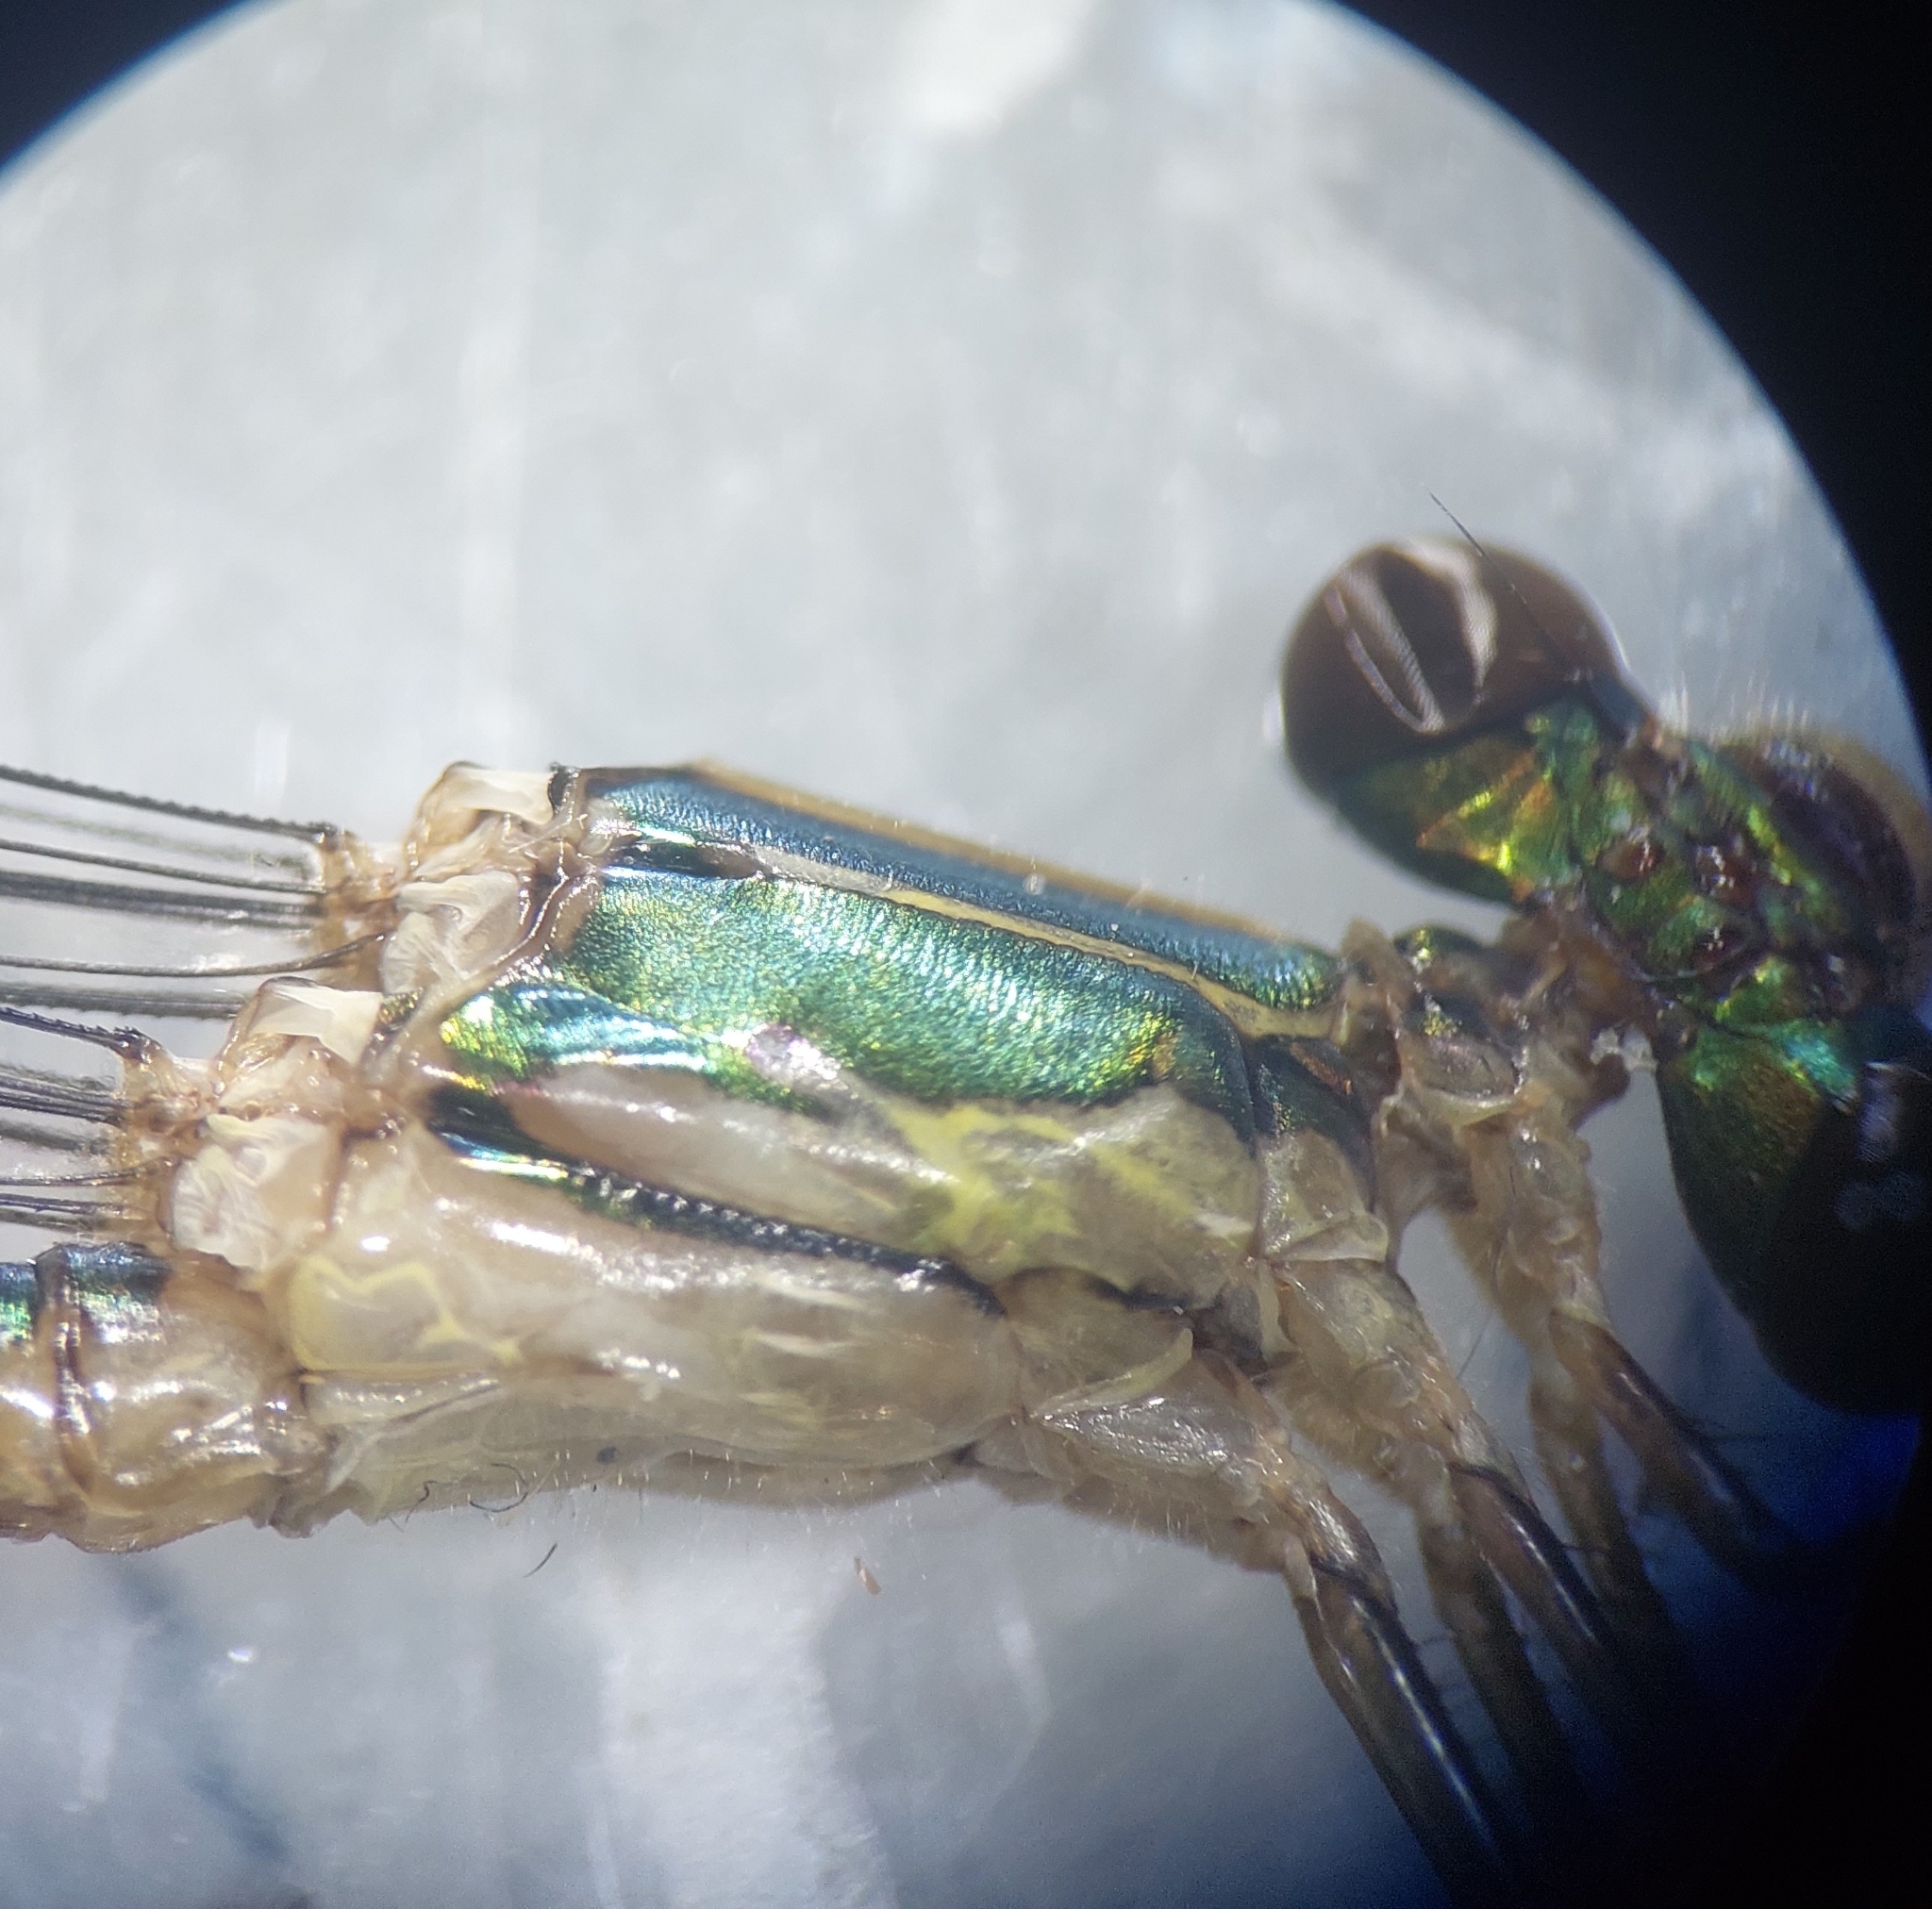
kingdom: Animalia
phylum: Arthropoda
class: Insecta
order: Odonata
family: Lestidae
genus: Chalcolestes
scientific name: Chalcolestes viridis
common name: Green emerald damselfly
